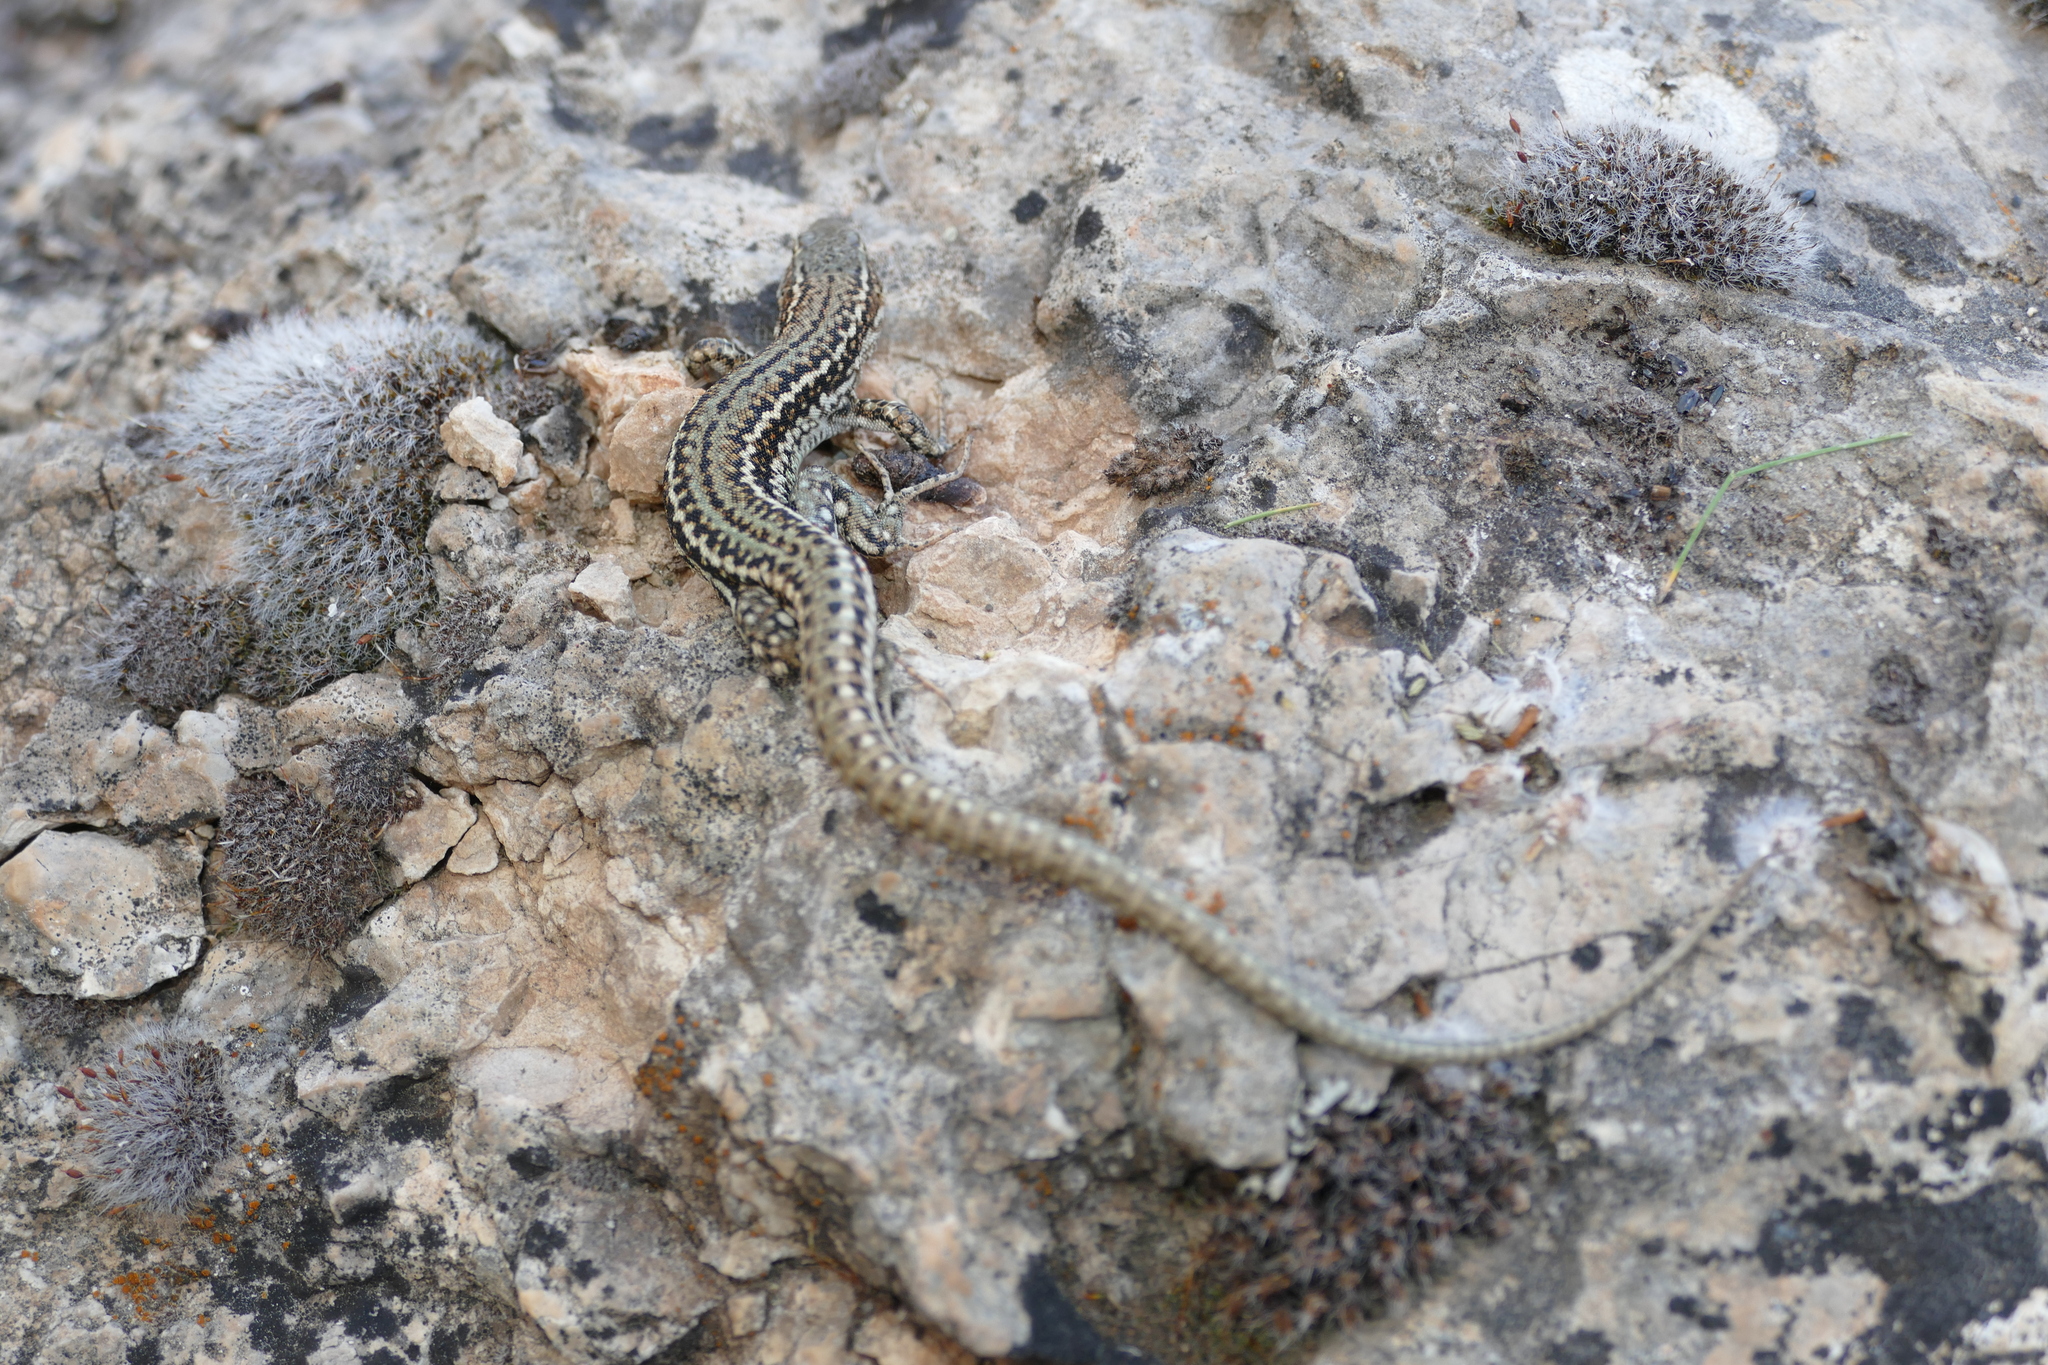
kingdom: Animalia
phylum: Chordata
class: Squamata
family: Lacertidae
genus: Podarcis
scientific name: Podarcis liolepis
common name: Catalonian wall lizard
